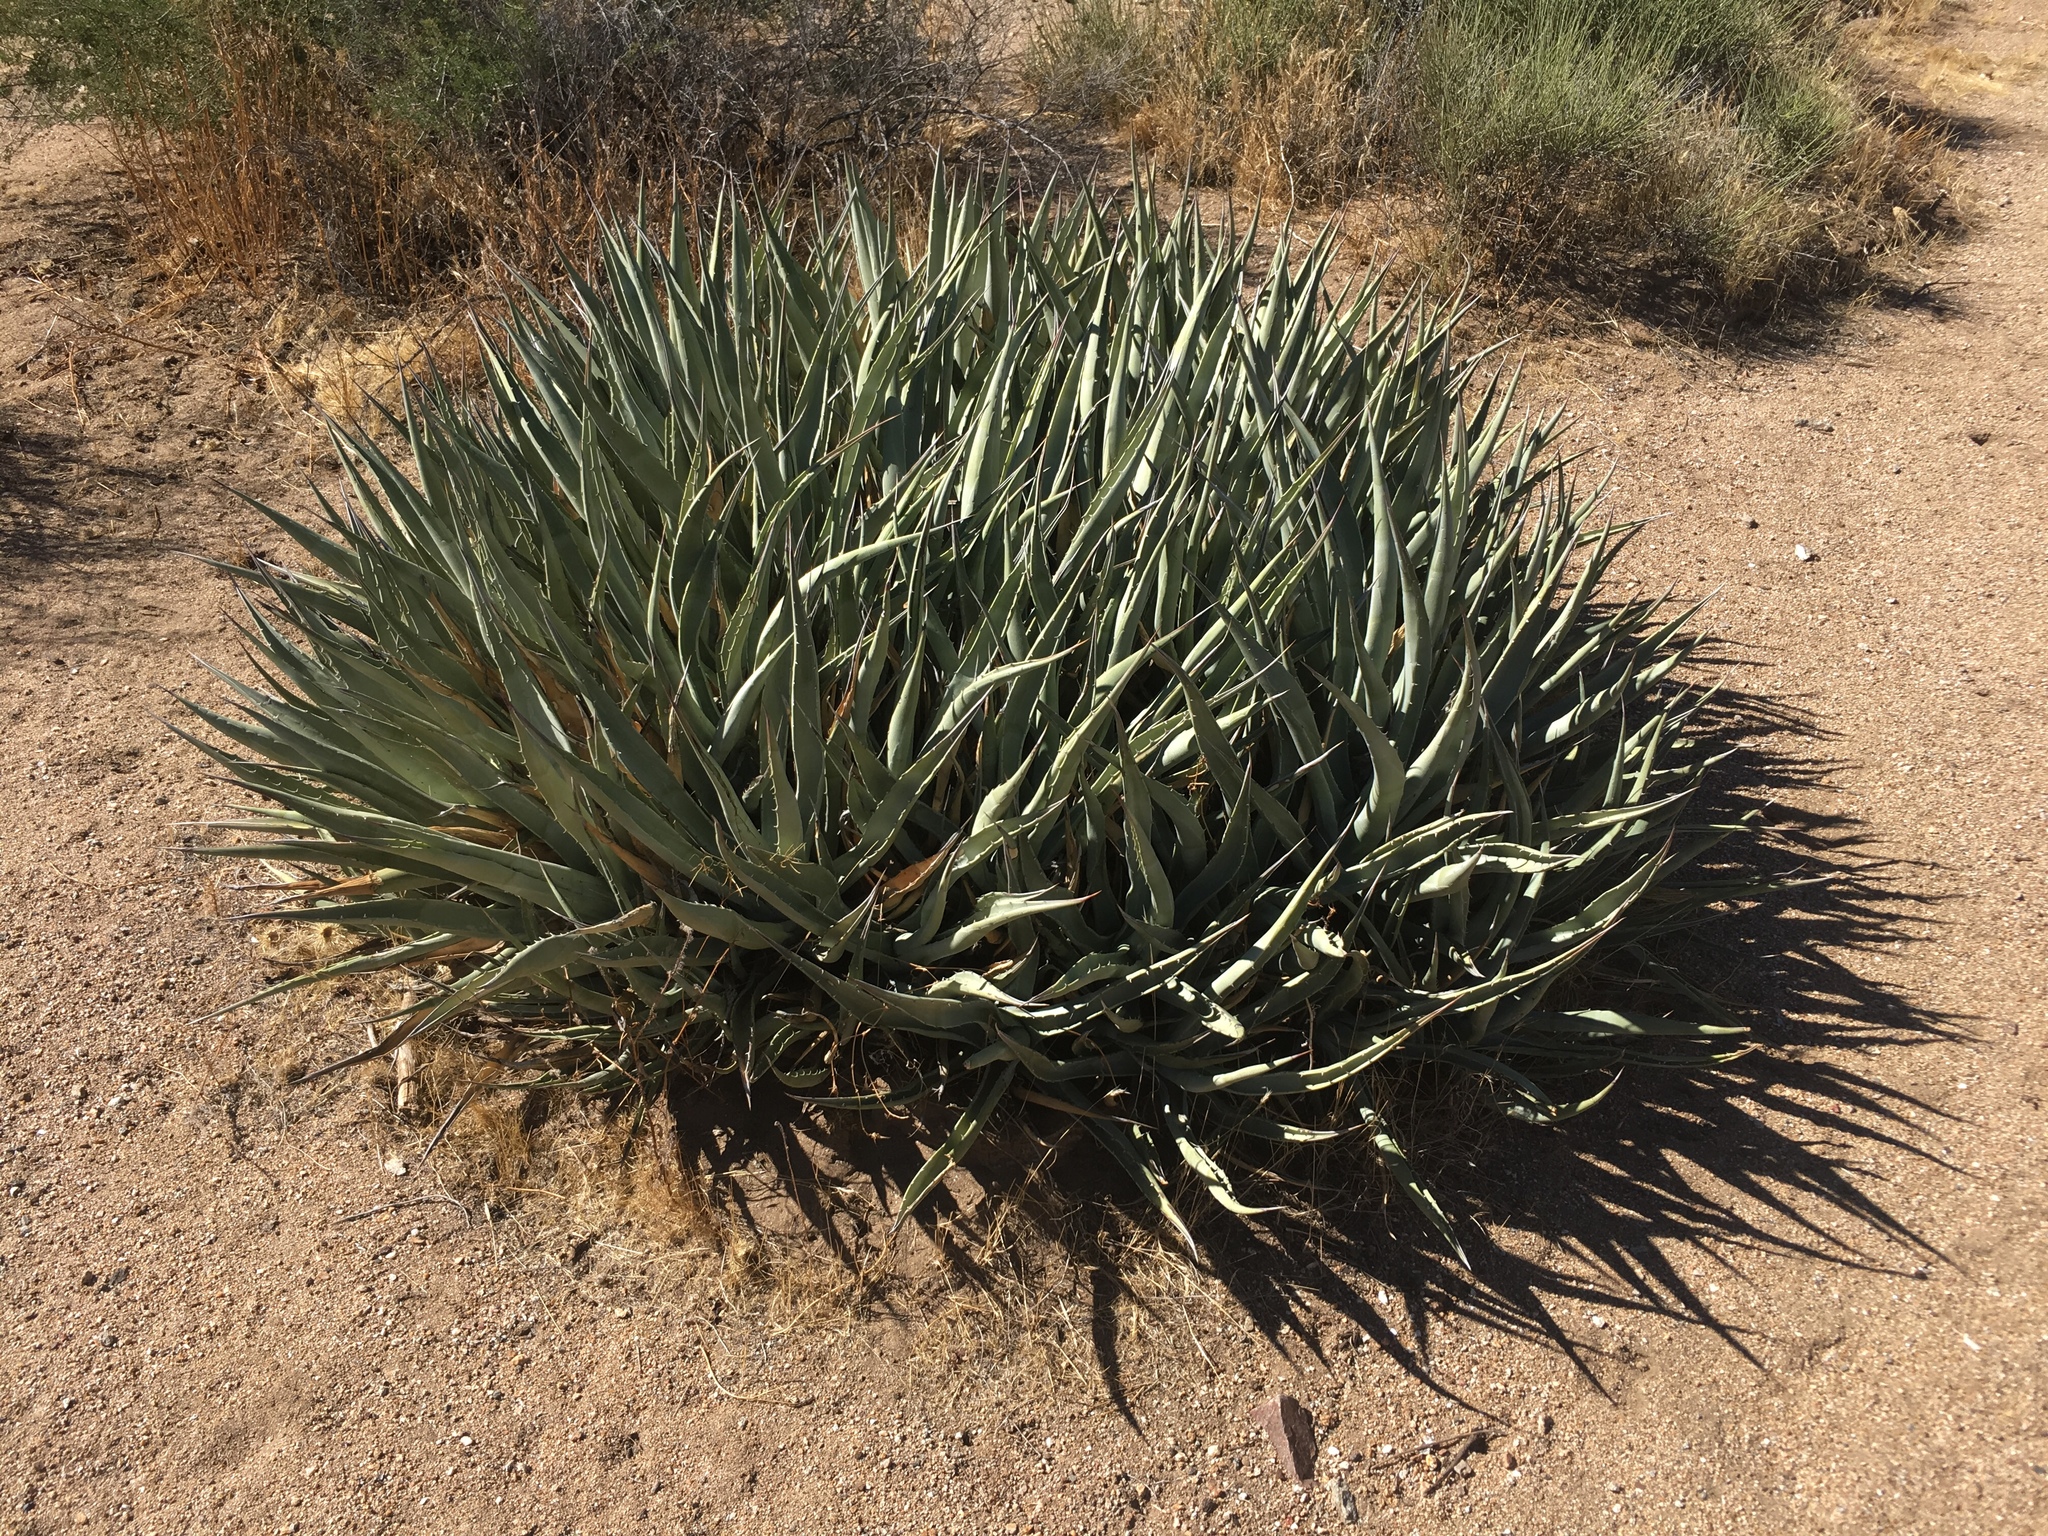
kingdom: Plantae
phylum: Tracheophyta
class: Liliopsida
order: Asparagales
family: Asparagaceae
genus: Agave
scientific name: Agave deserti
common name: Desert agave
